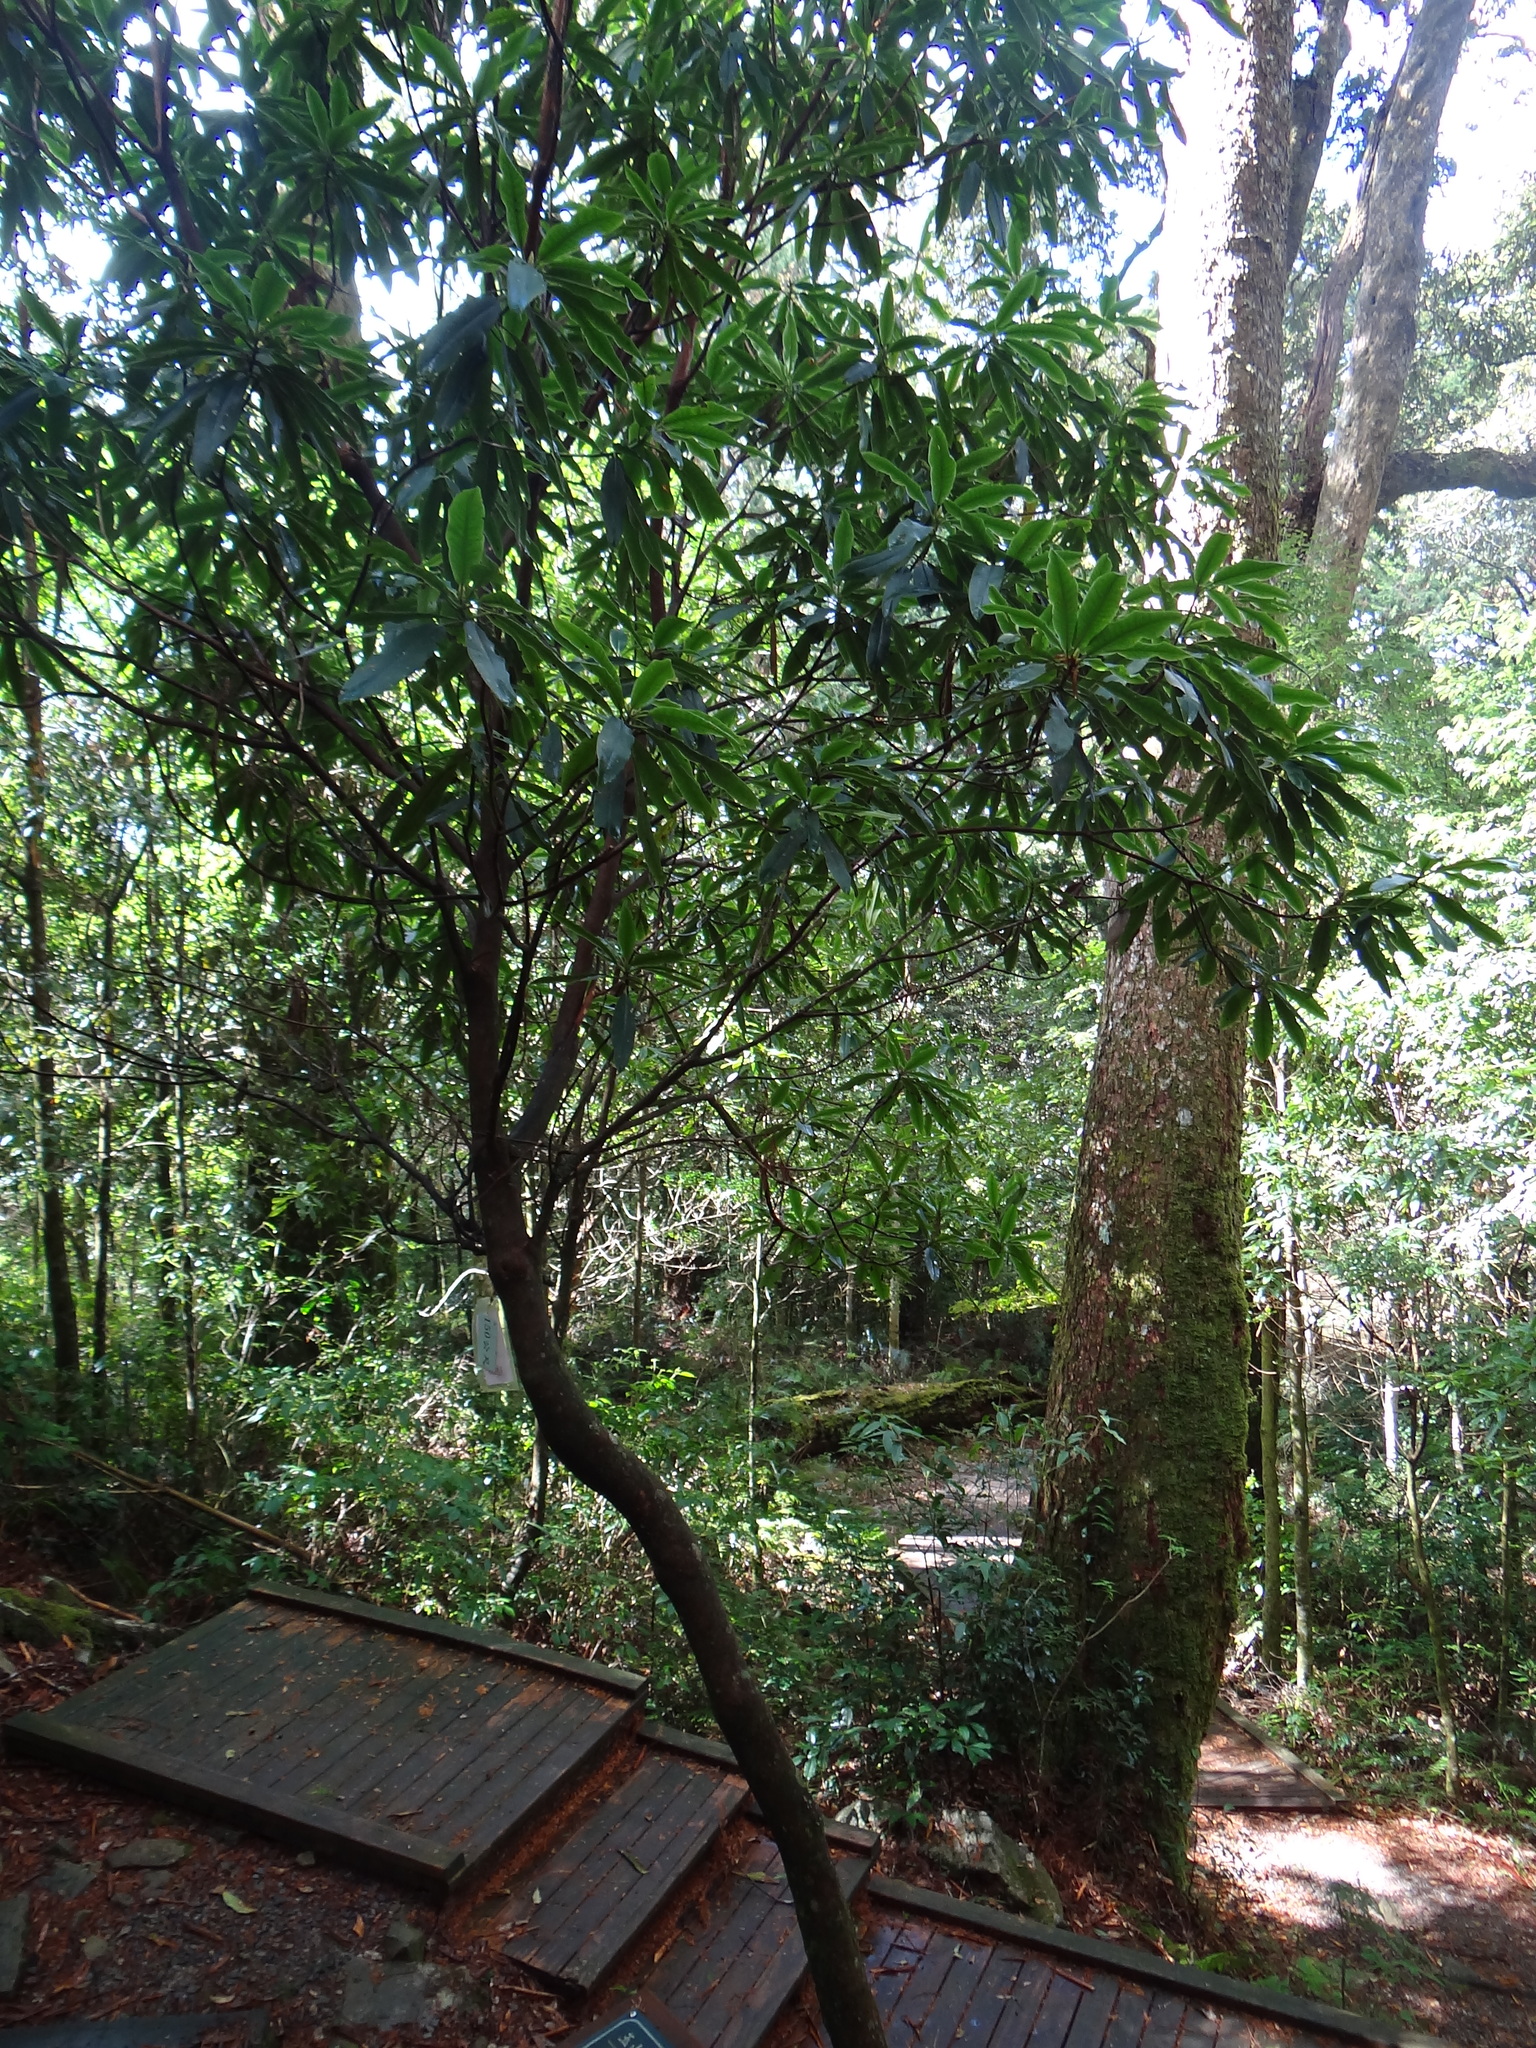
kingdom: Plantae
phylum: Tracheophyta
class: Magnoliopsida
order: Ericales
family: Ericaceae
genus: Rhododendron
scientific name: Rhododendron pseudochrysanthum
